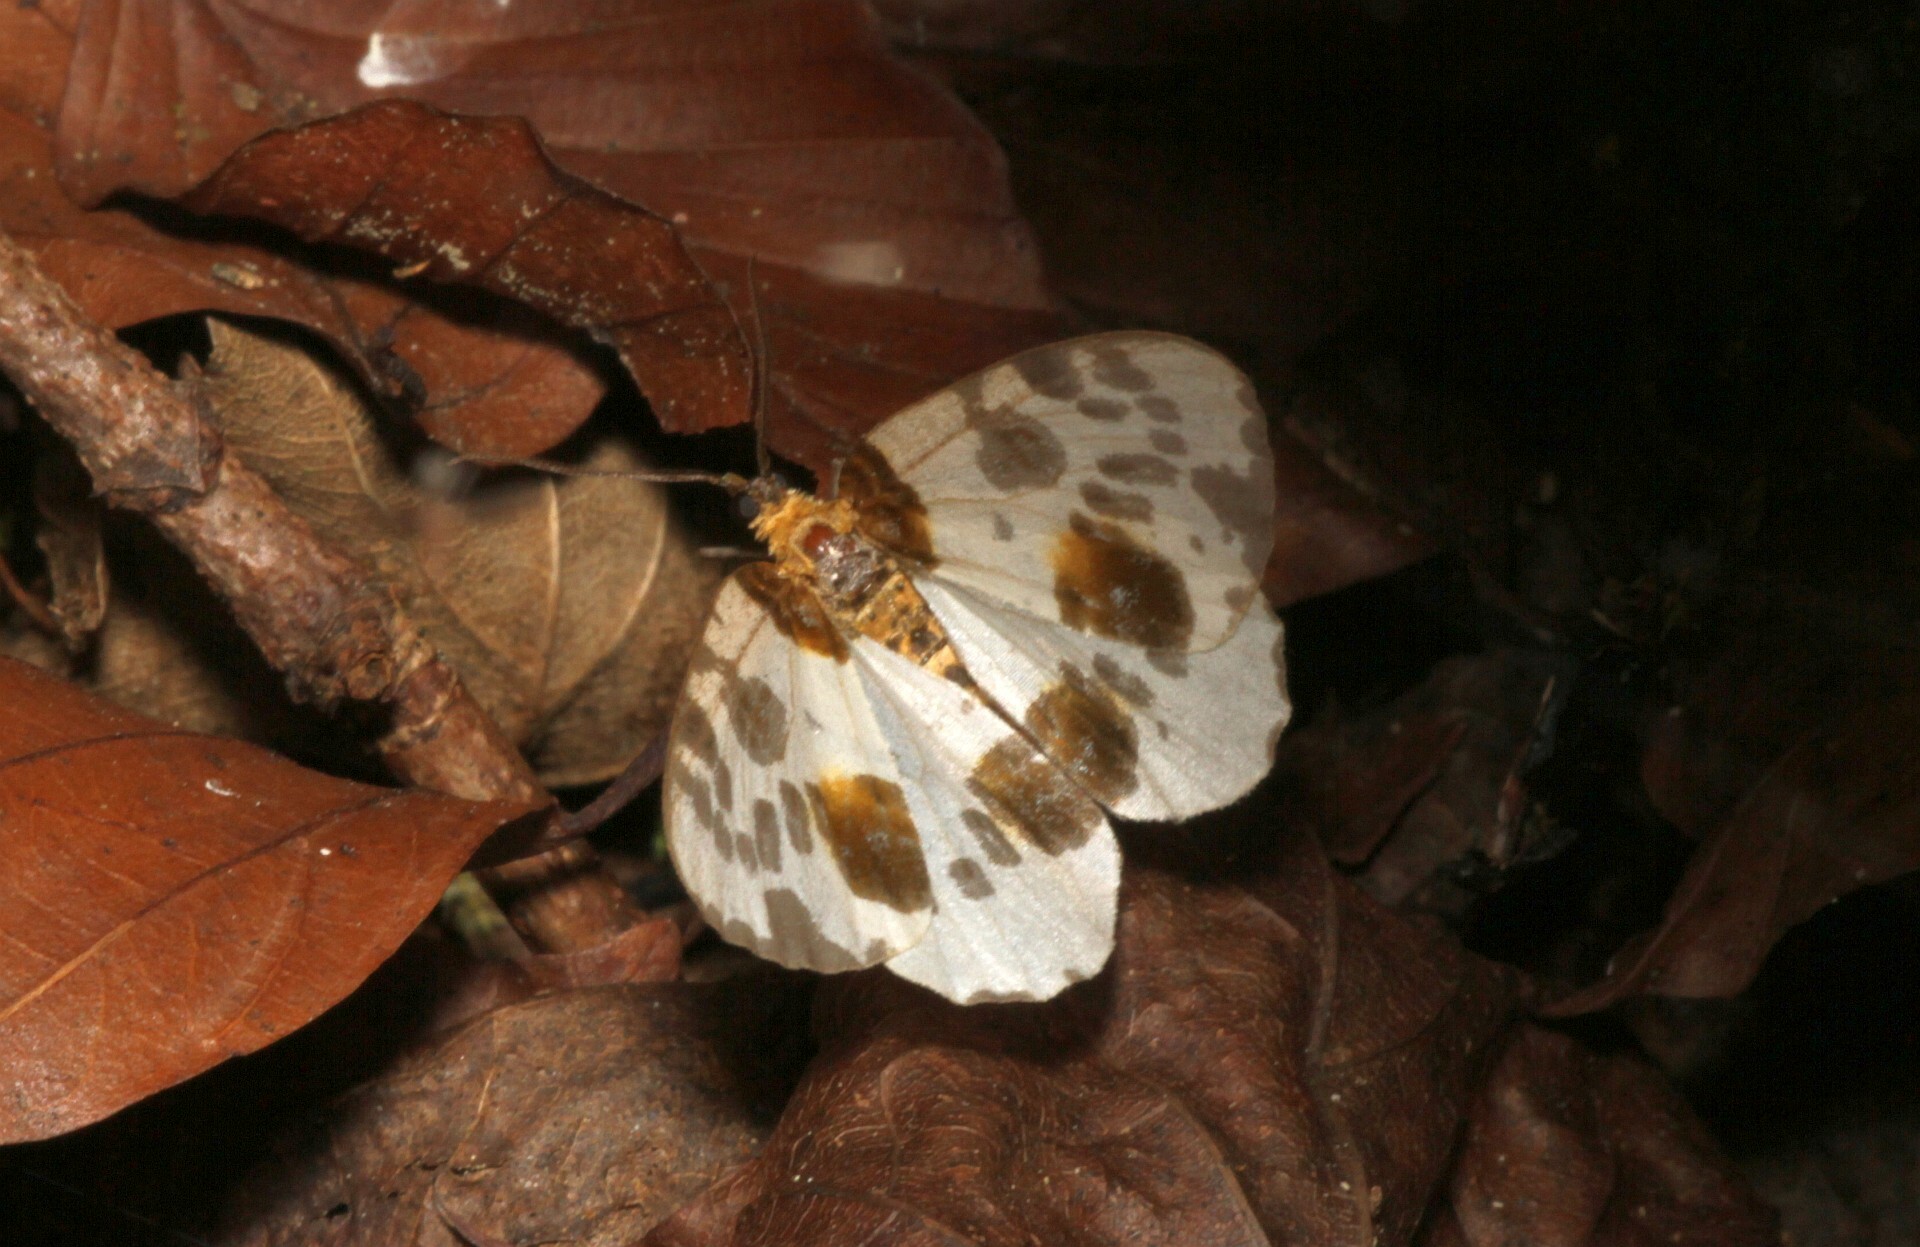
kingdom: Animalia
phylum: Arthropoda
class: Insecta
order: Lepidoptera
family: Geometridae
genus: Abraxas
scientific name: Abraxas sylvata
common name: Clouded magpie
